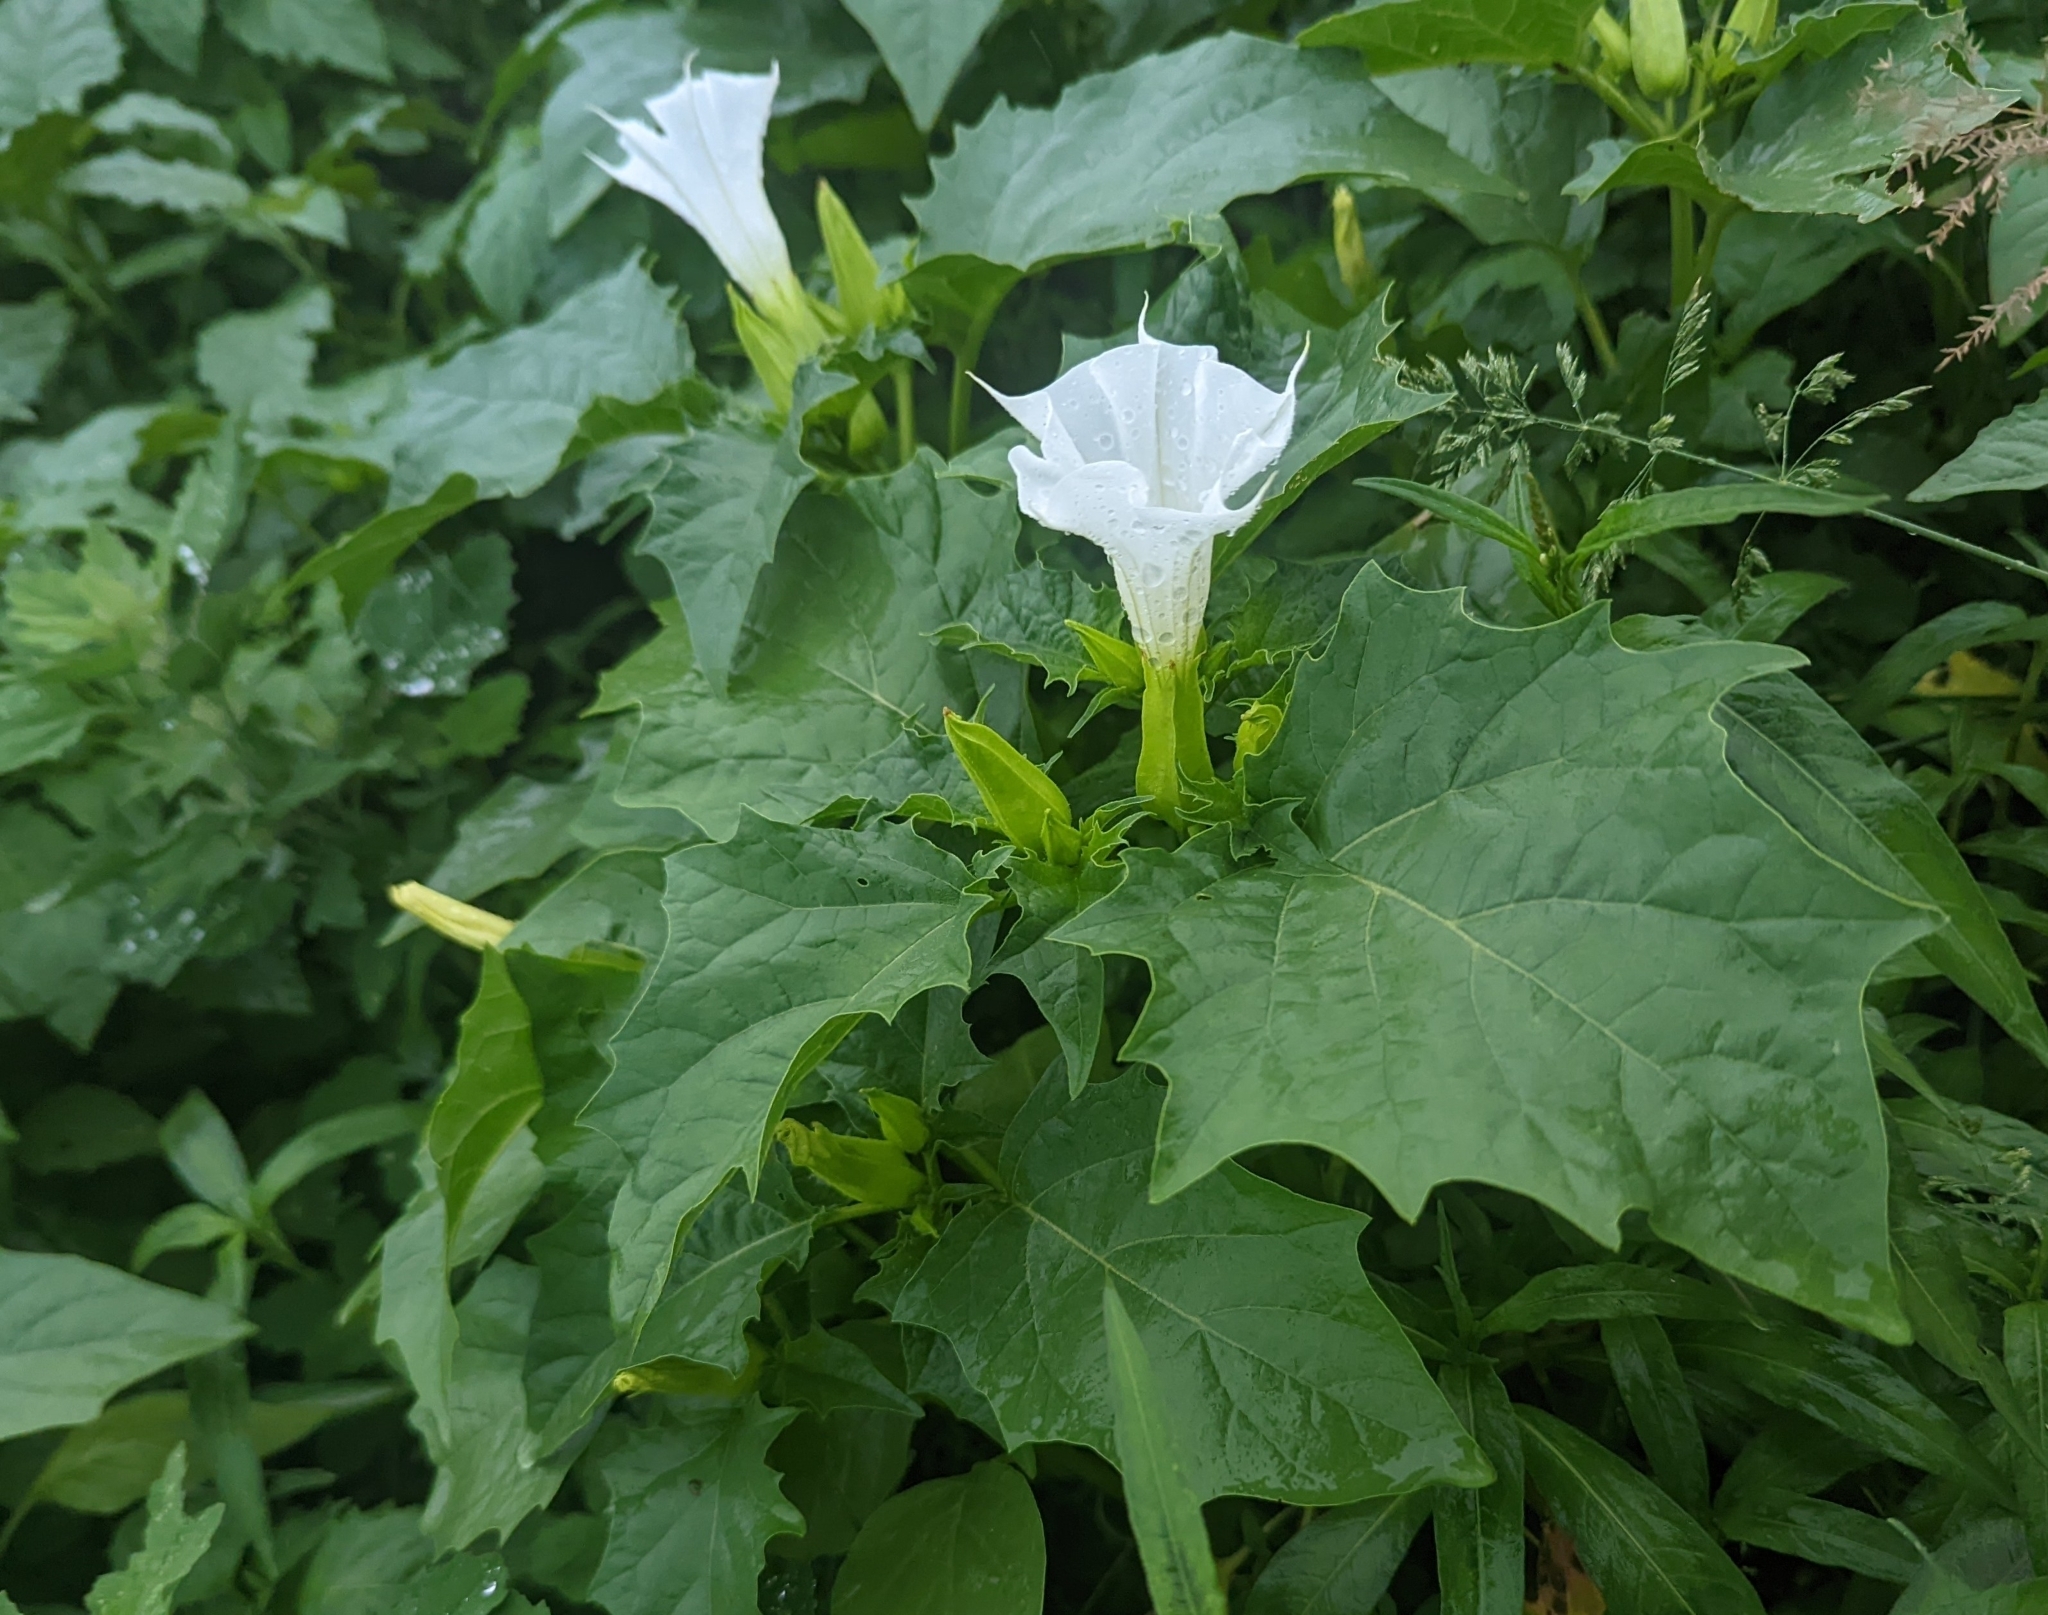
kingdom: Plantae
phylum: Tracheophyta
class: Magnoliopsida
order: Solanales
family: Solanaceae
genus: Datura
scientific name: Datura stramonium
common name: Thorn-apple
